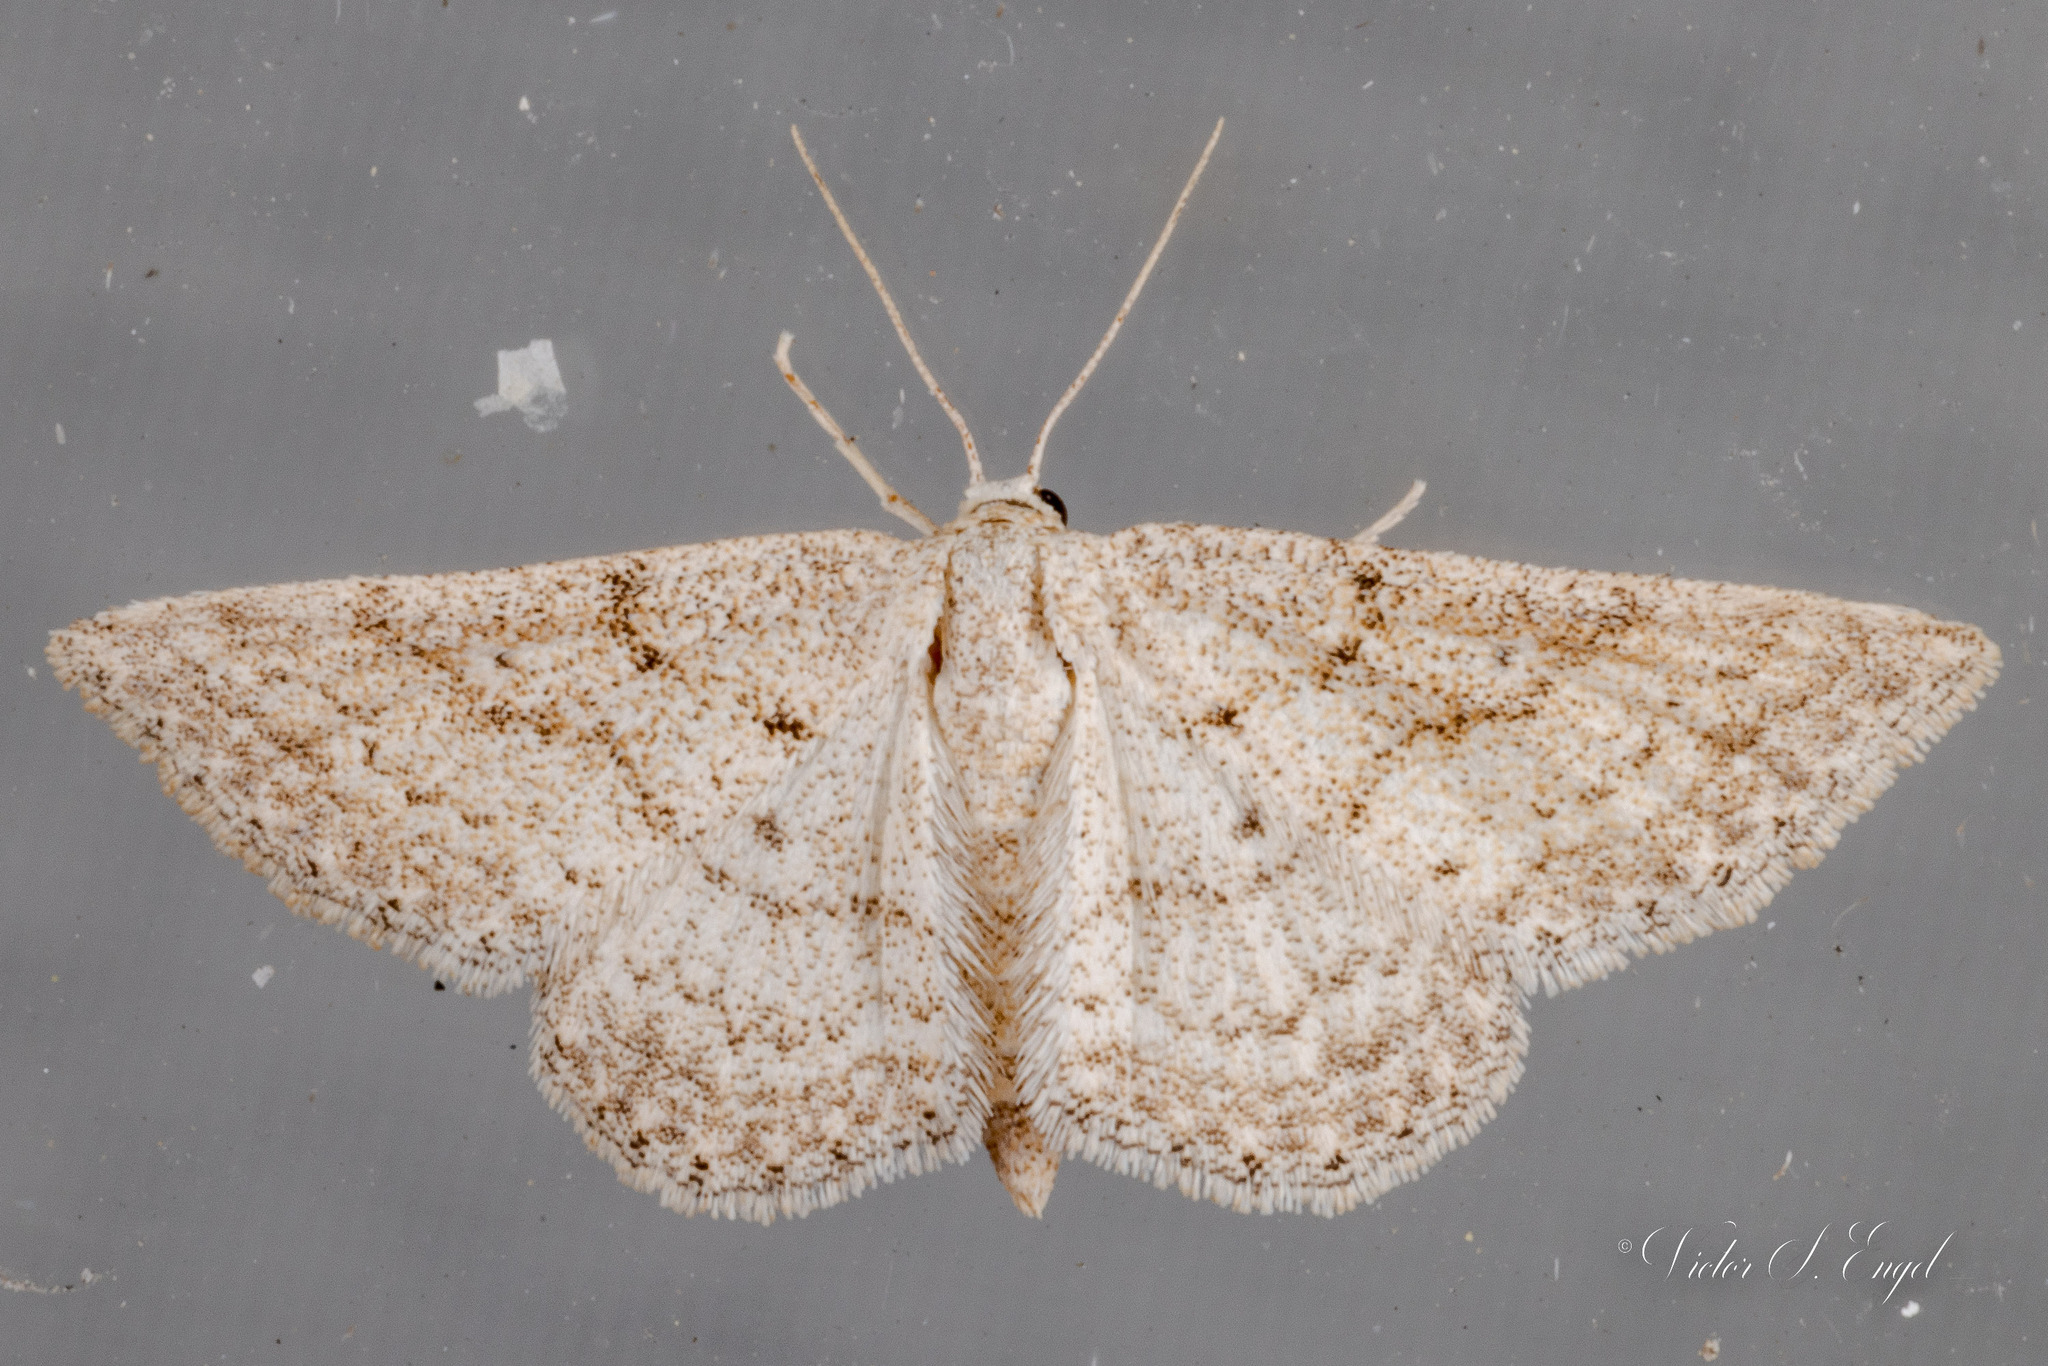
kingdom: Animalia
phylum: Arthropoda
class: Insecta
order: Lepidoptera
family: Geometridae
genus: Lobocleta
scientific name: Lobocleta ossularia
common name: Drab brown wave
